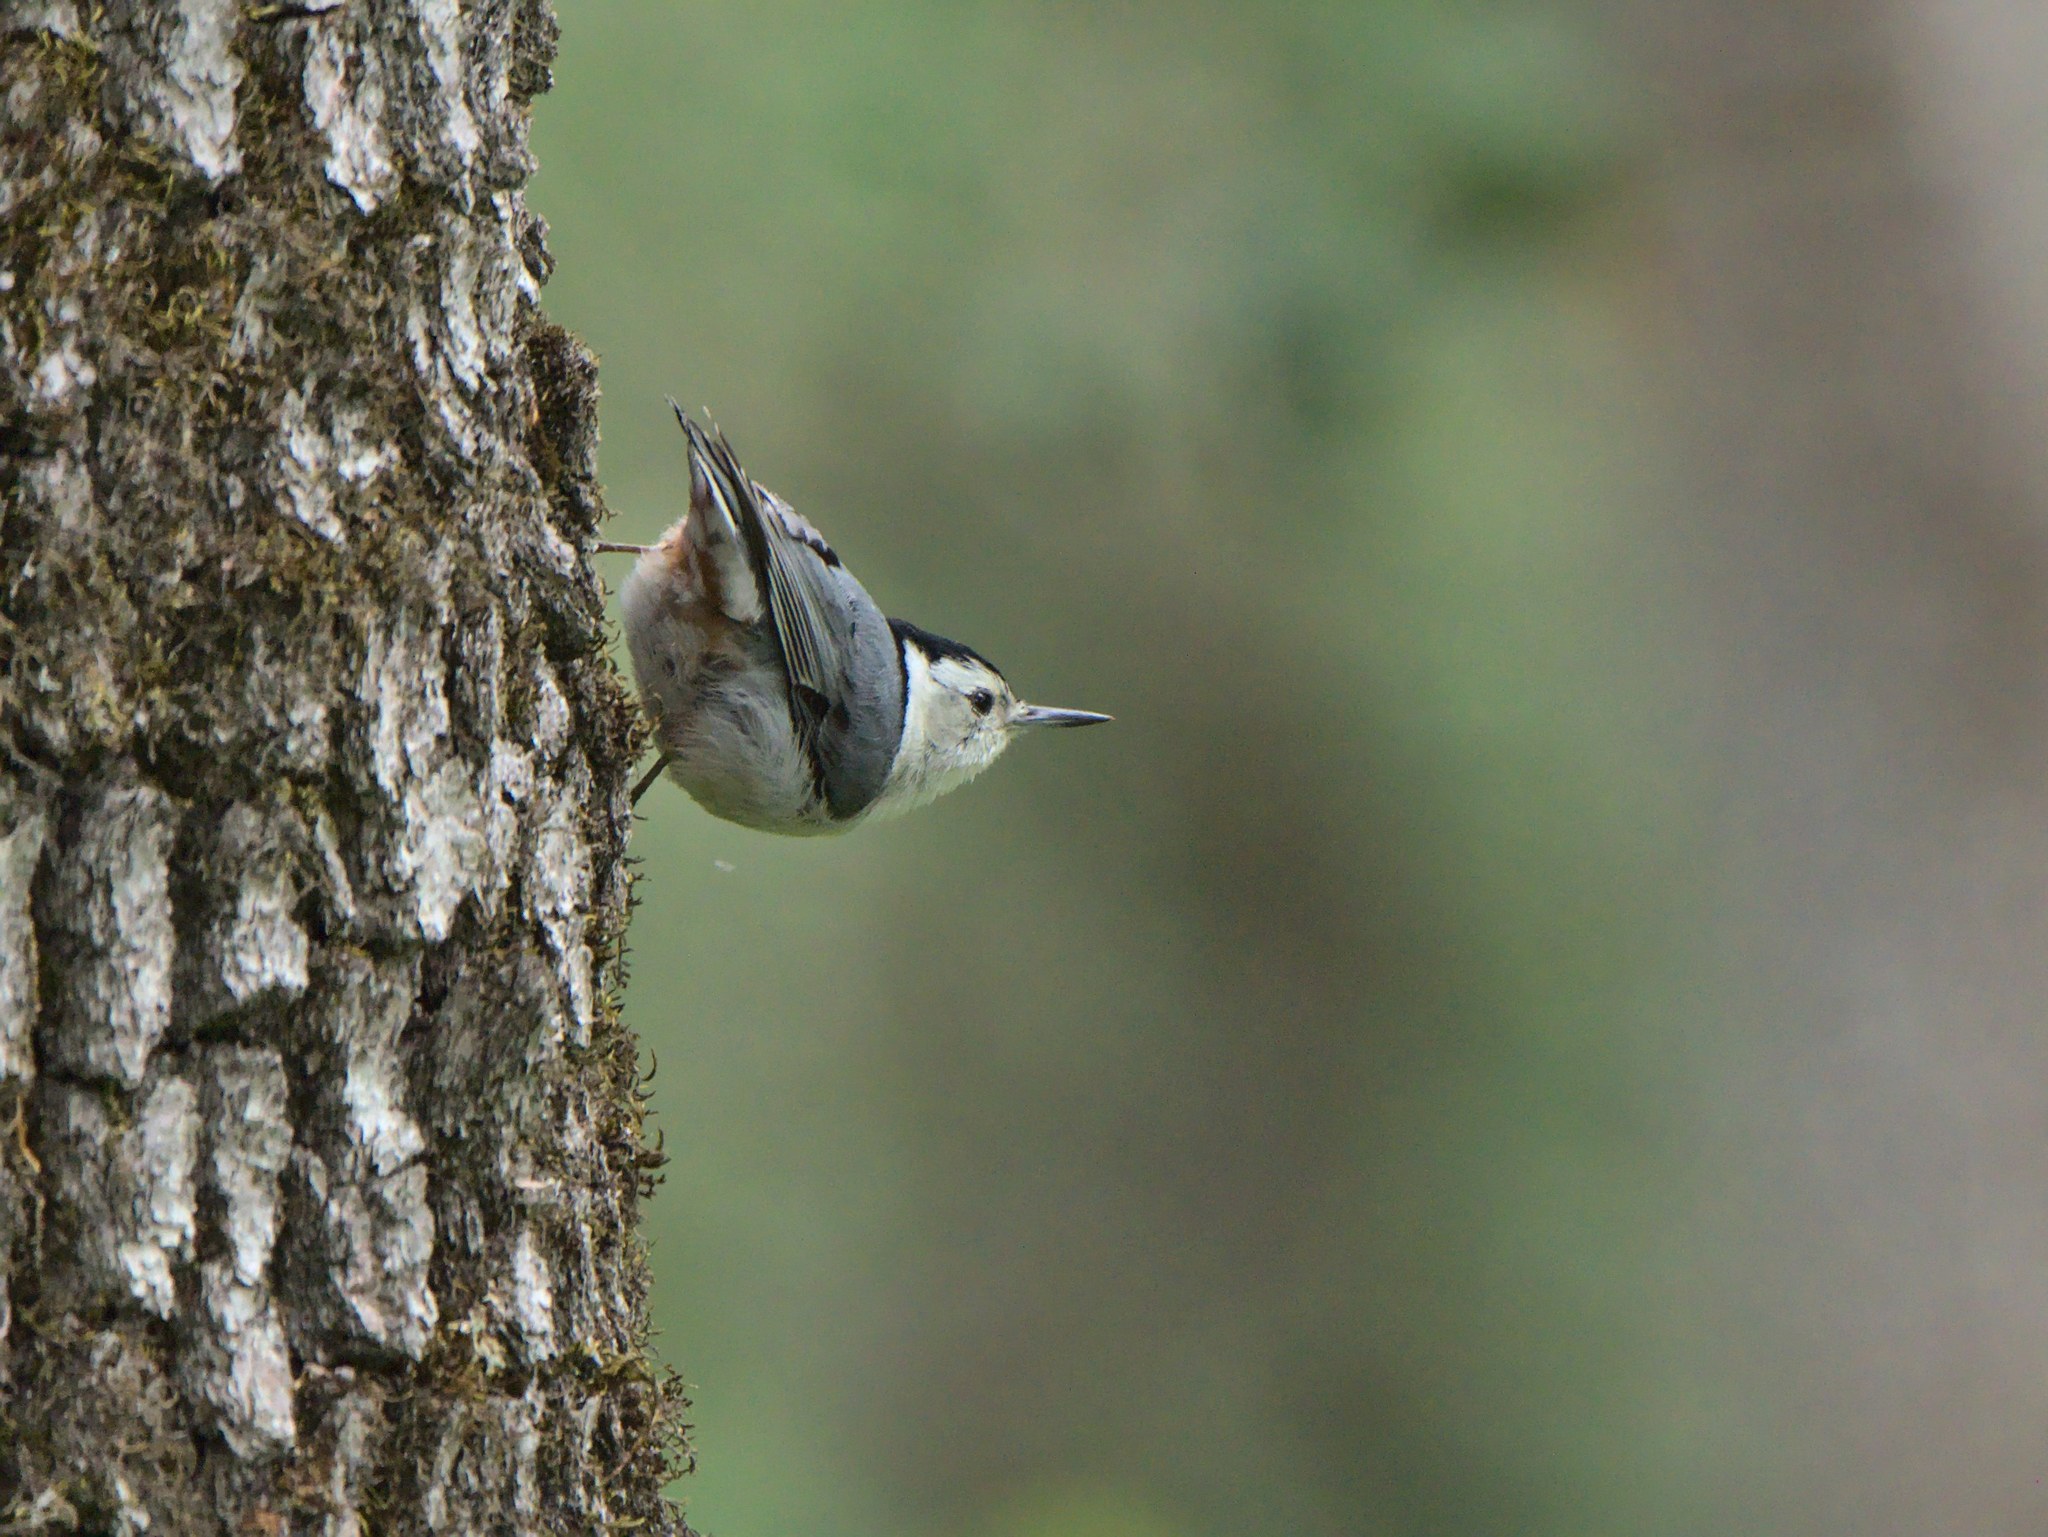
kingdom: Animalia
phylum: Chordata
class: Aves
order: Passeriformes
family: Sittidae
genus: Sitta
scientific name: Sitta carolinensis
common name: White-breasted nuthatch
